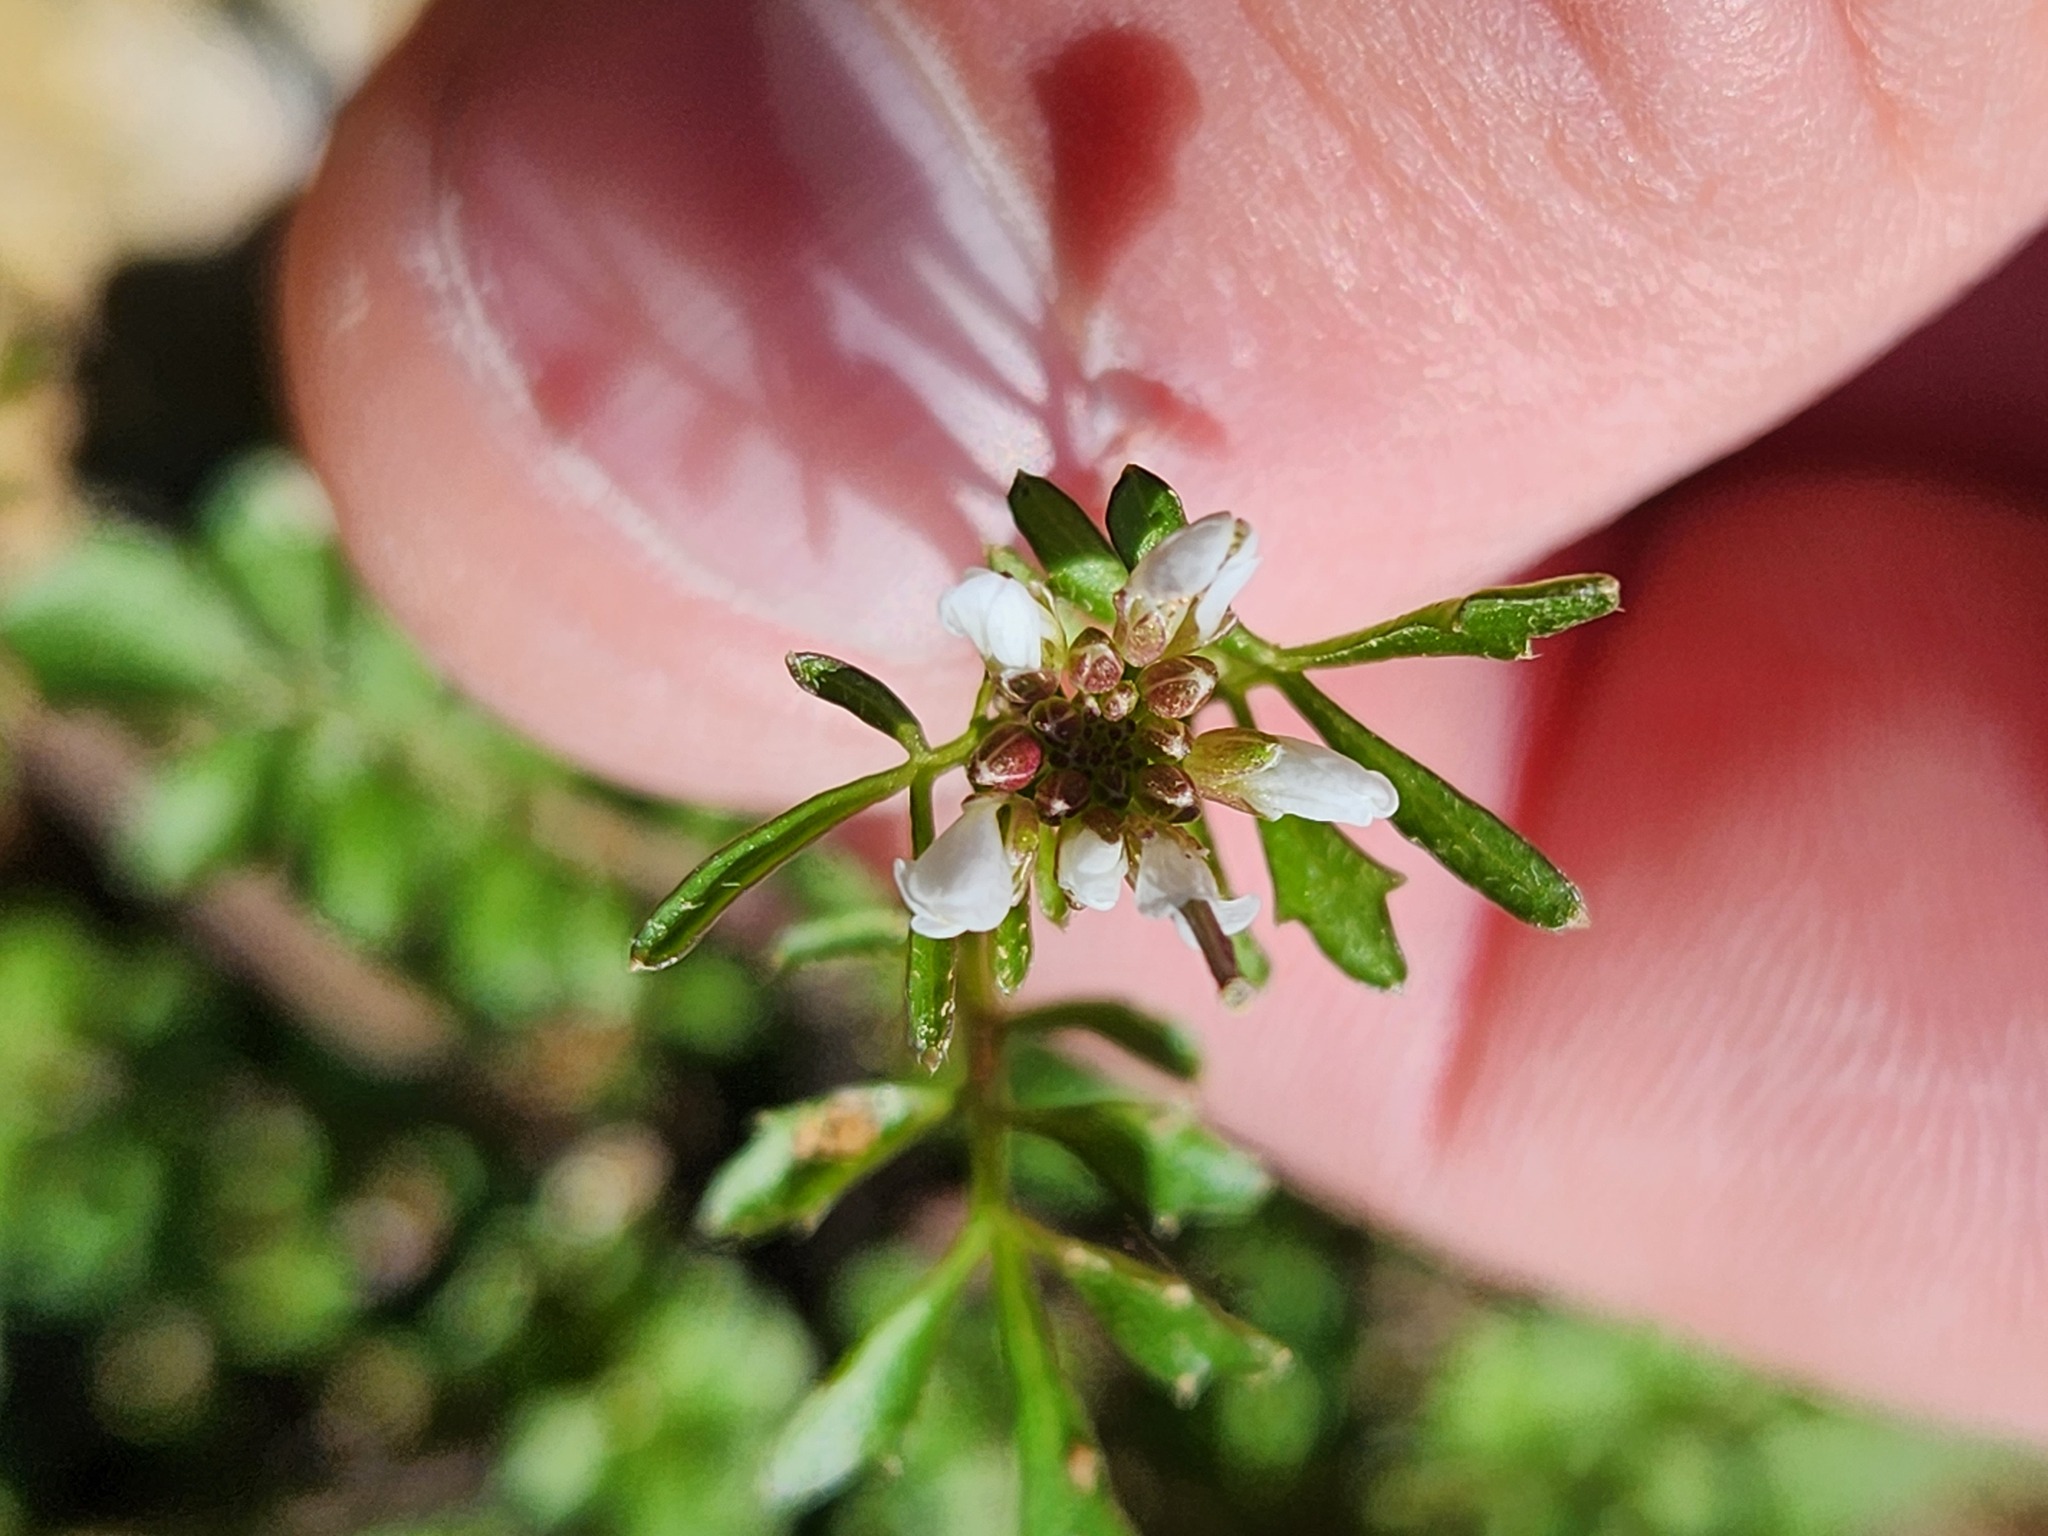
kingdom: Plantae
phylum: Tracheophyta
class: Magnoliopsida
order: Brassicales
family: Brassicaceae
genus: Cardamine
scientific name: Cardamine hirsuta
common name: Hairy bittercress
